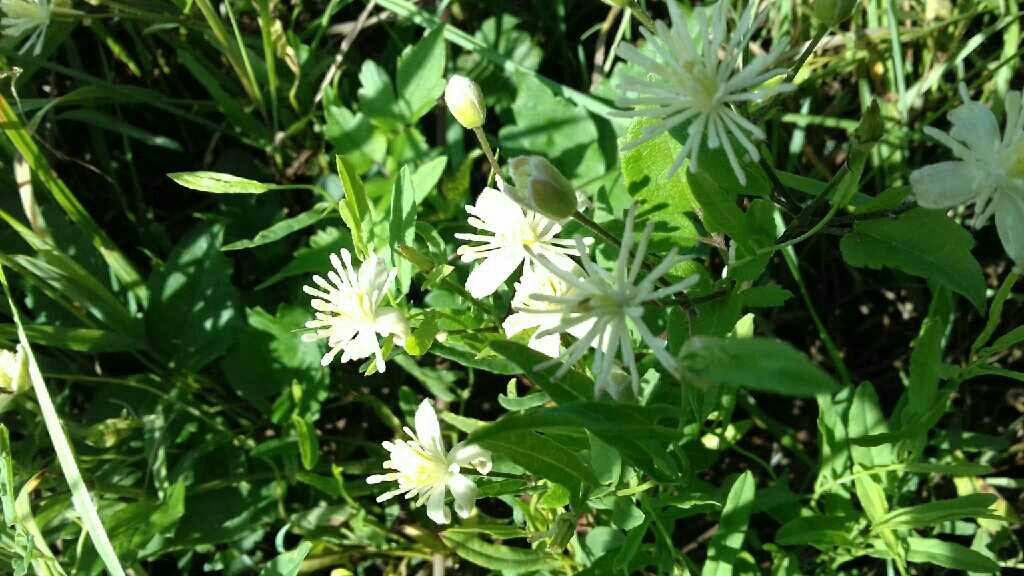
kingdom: Plantae
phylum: Tracheophyta
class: Magnoliopsida
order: Ranunculales
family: Ranunculaceae
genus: Clematis
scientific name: Clematis vitalba
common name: Evergreen clematis
